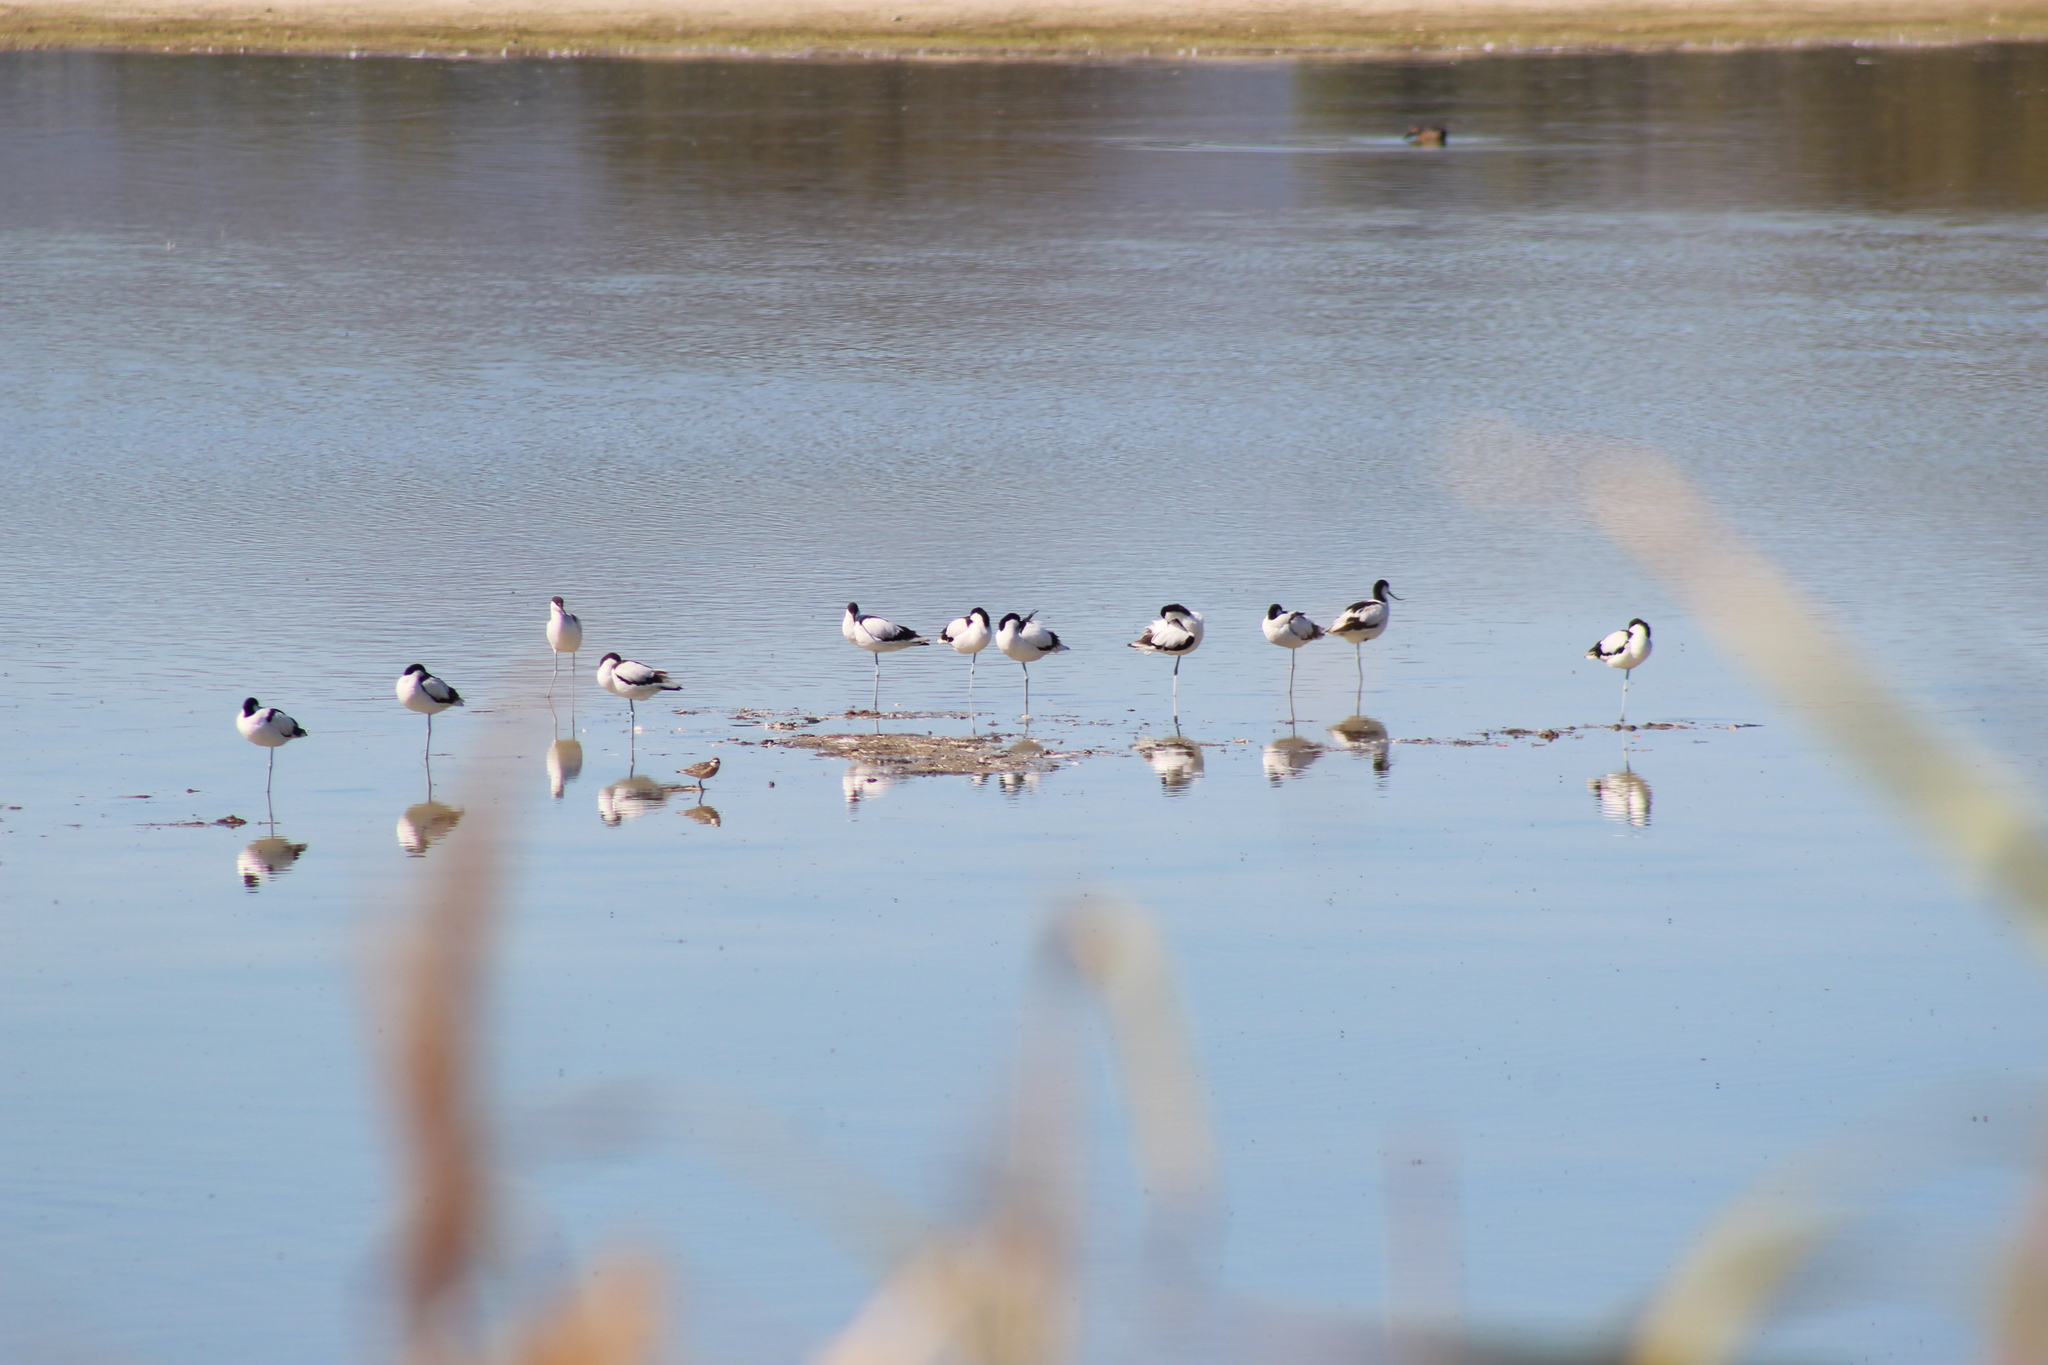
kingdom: Animalia
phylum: Chordata
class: Aves
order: Charadriiformes
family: Recurvirostridae
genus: Recurvirostra
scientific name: Recurvirostra avosetta
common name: Pied avocet
